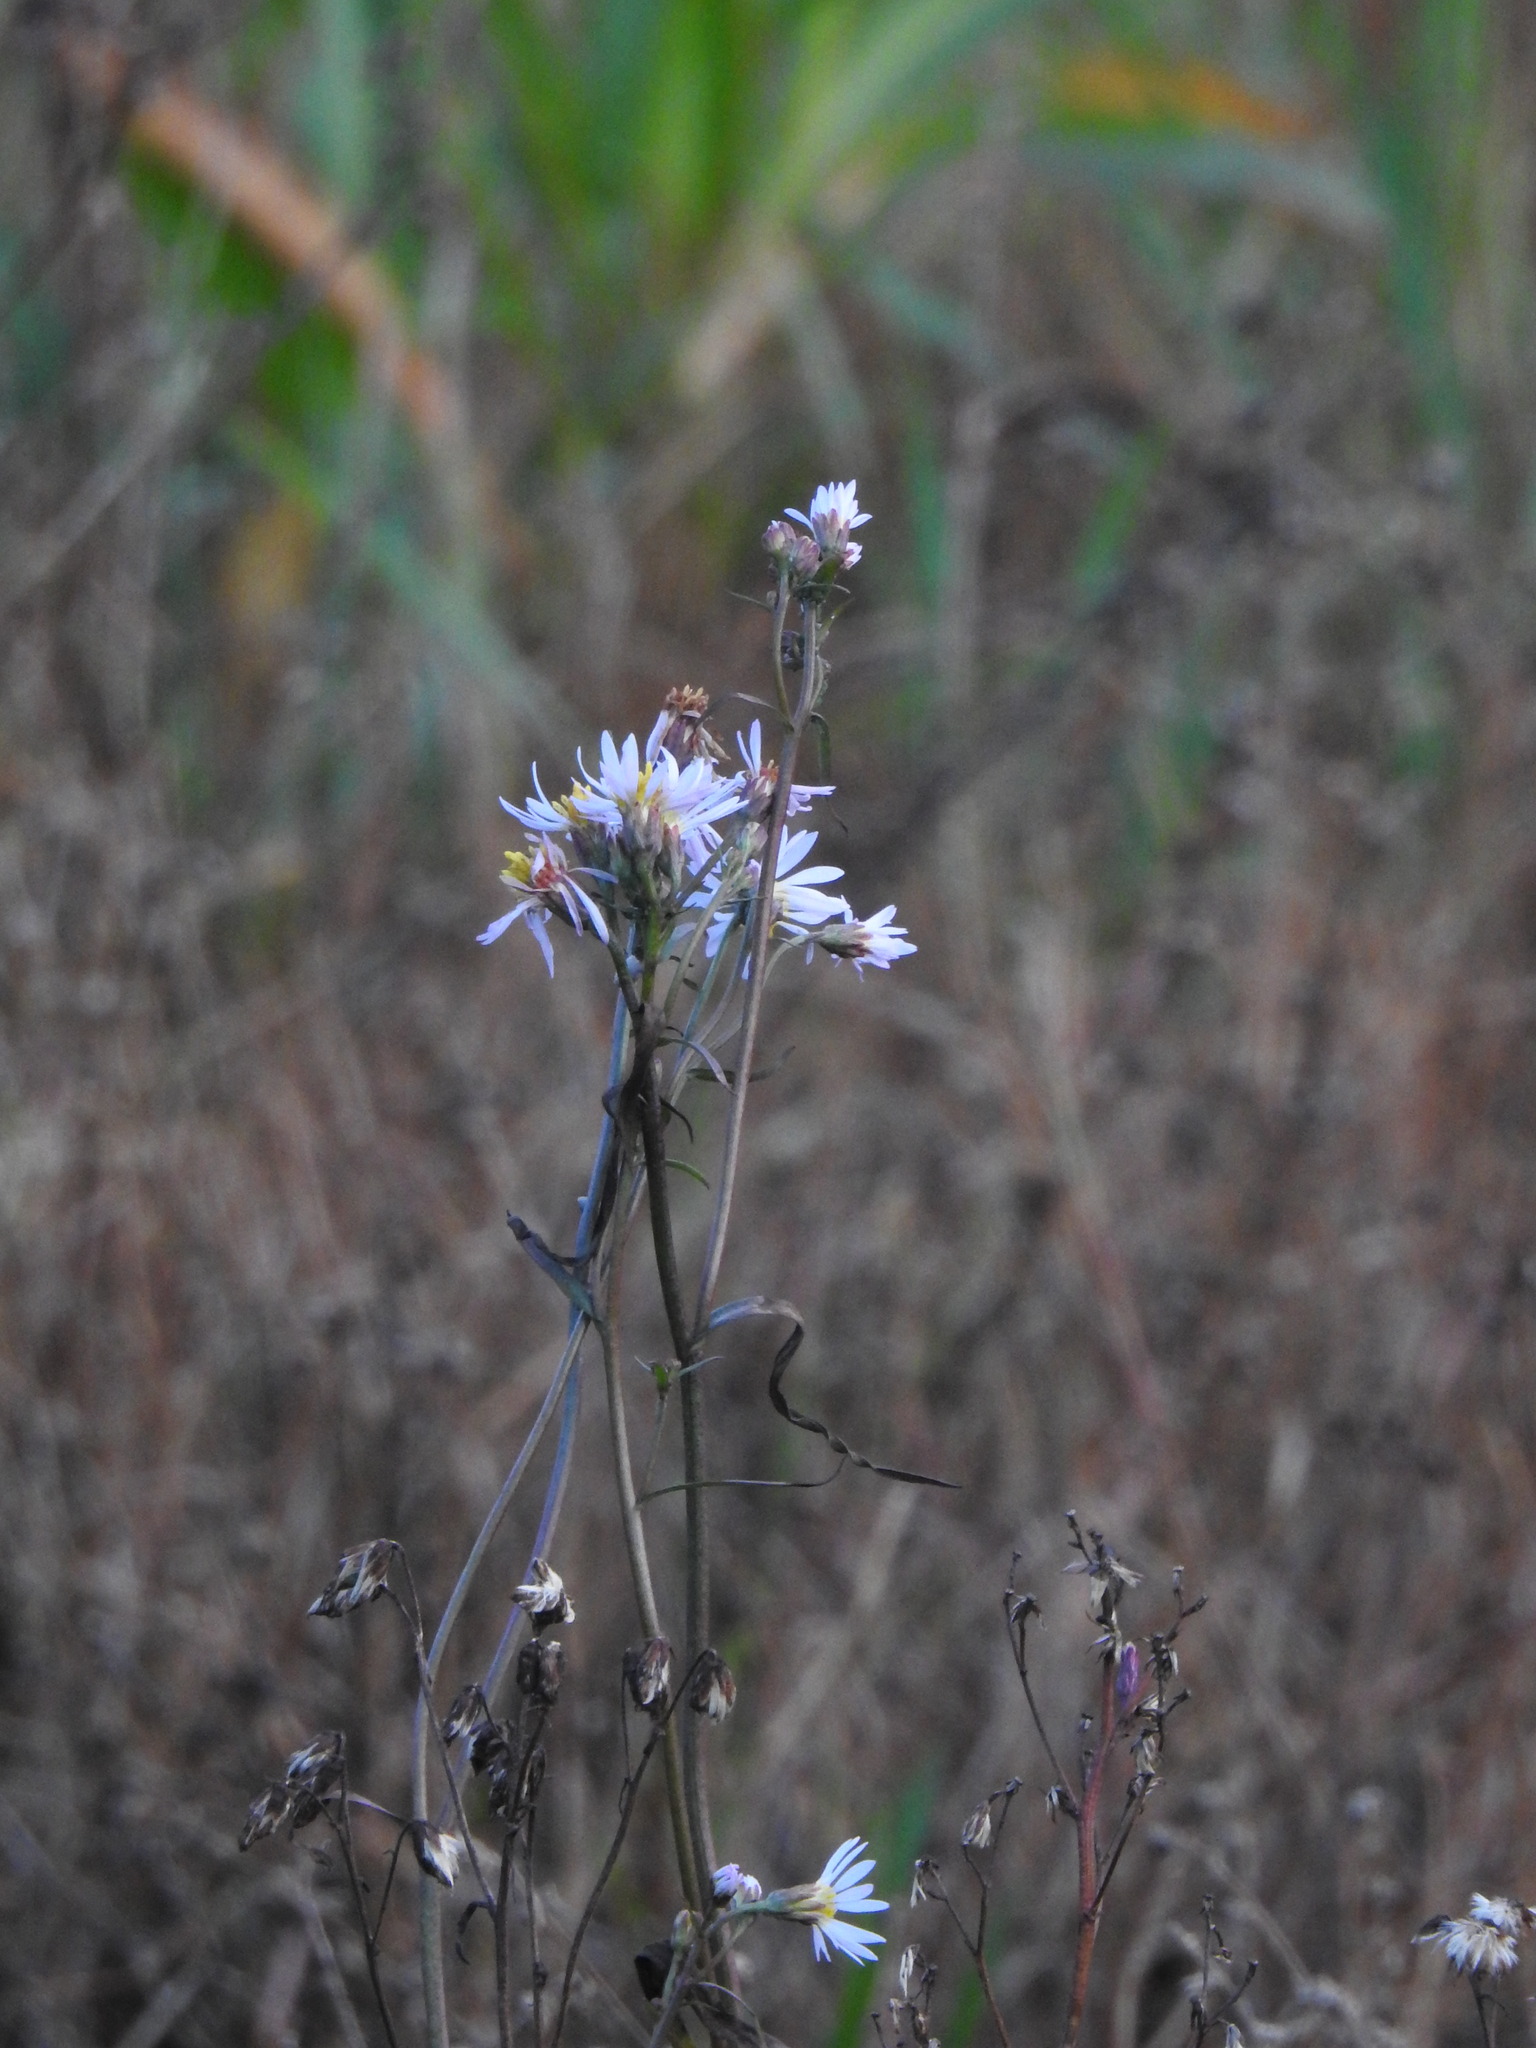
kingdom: Plantae
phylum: Tracheophyta
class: Magnoliopsida
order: Asterales
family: Asteraceae
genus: Tripolium
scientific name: Tripolium pannonicum
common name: Sea aster
